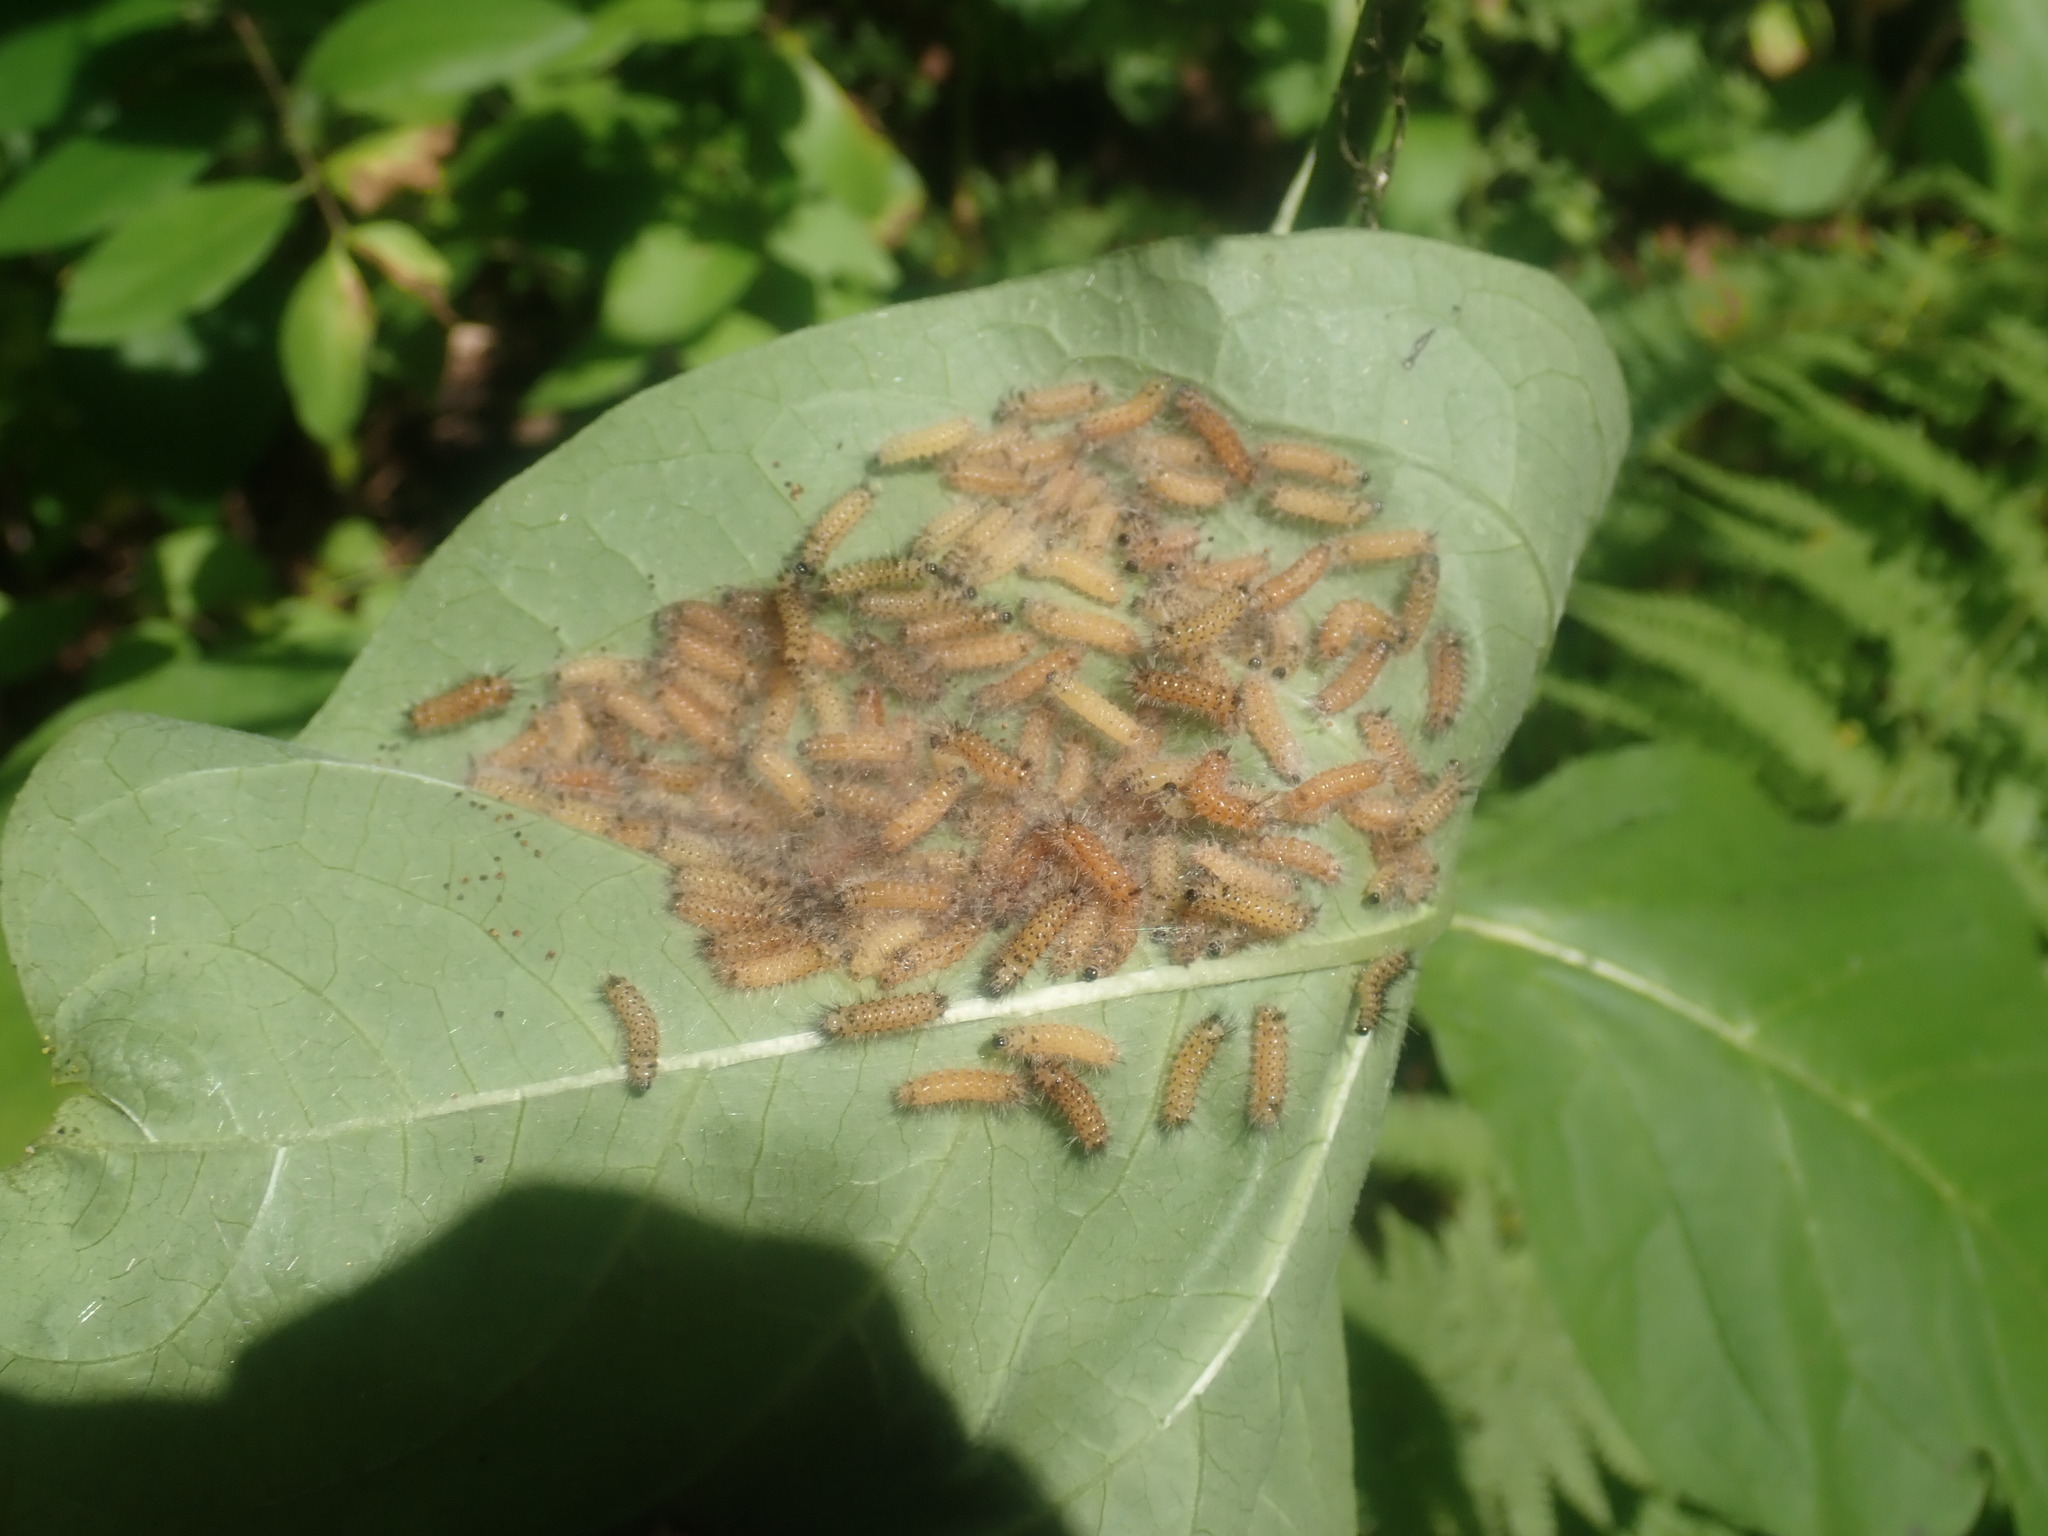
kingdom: Animalia
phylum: Arthropoda
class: Insecta
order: Lepidoptera
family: Erebidae
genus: Euchaetes
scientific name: Euchaetes egle
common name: Milkweed tussock moth
